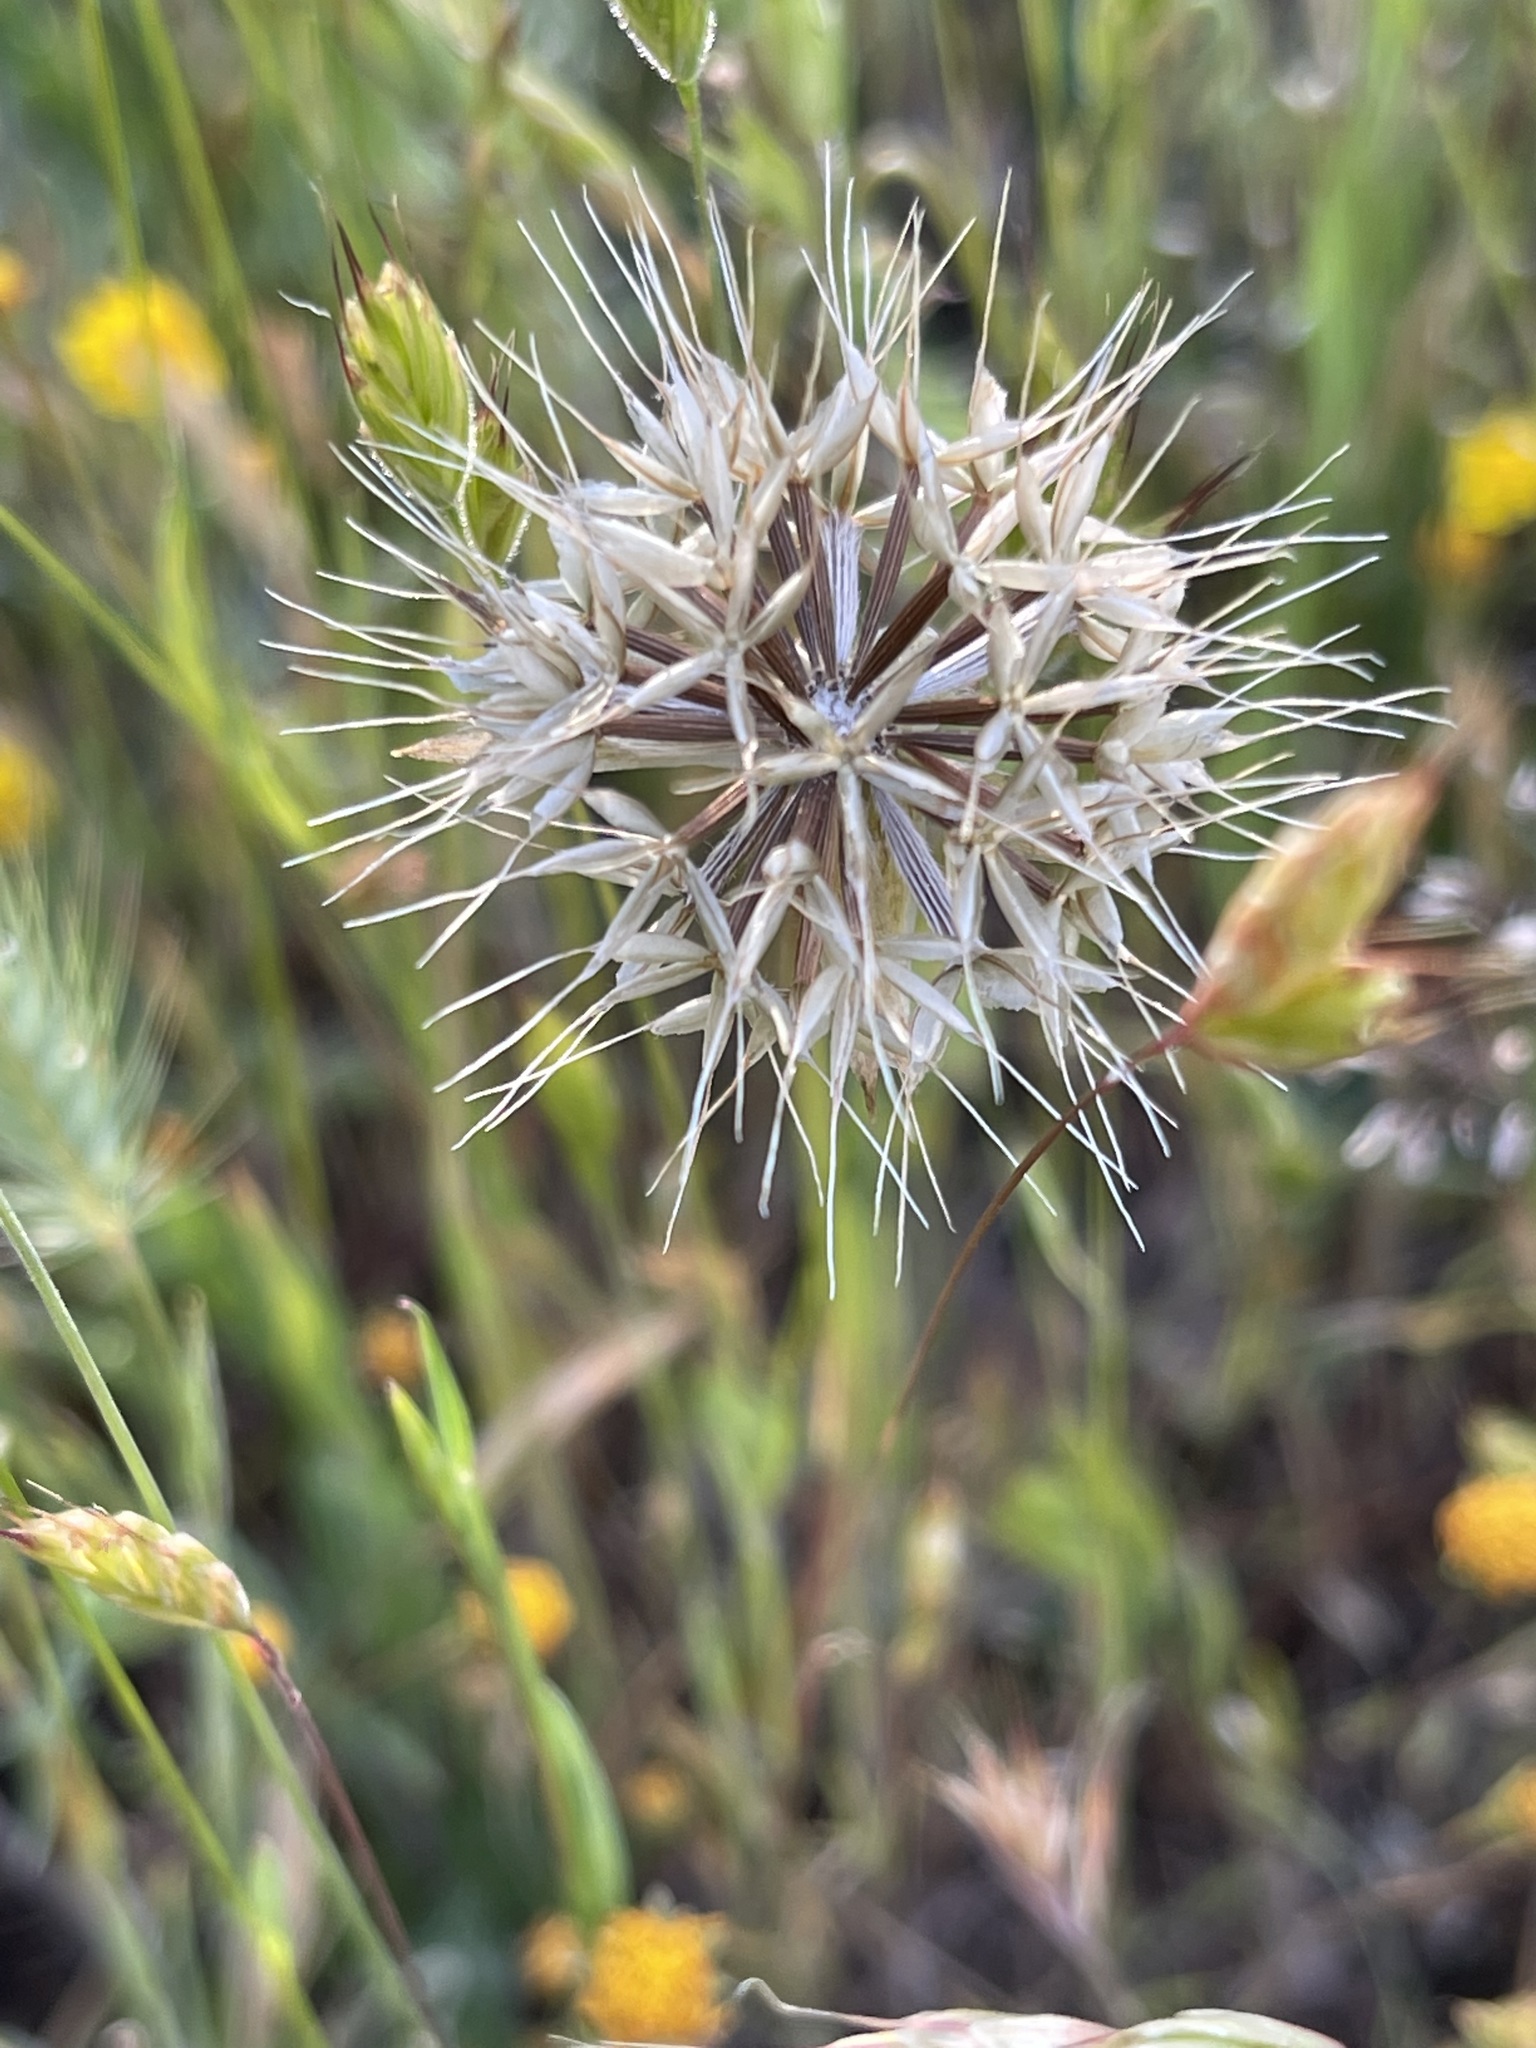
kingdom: Plantae
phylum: Tracheophyta
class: Magnoliopsida
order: Asterales
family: Asteraceae
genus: Microseris
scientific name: Microseris douglasii
